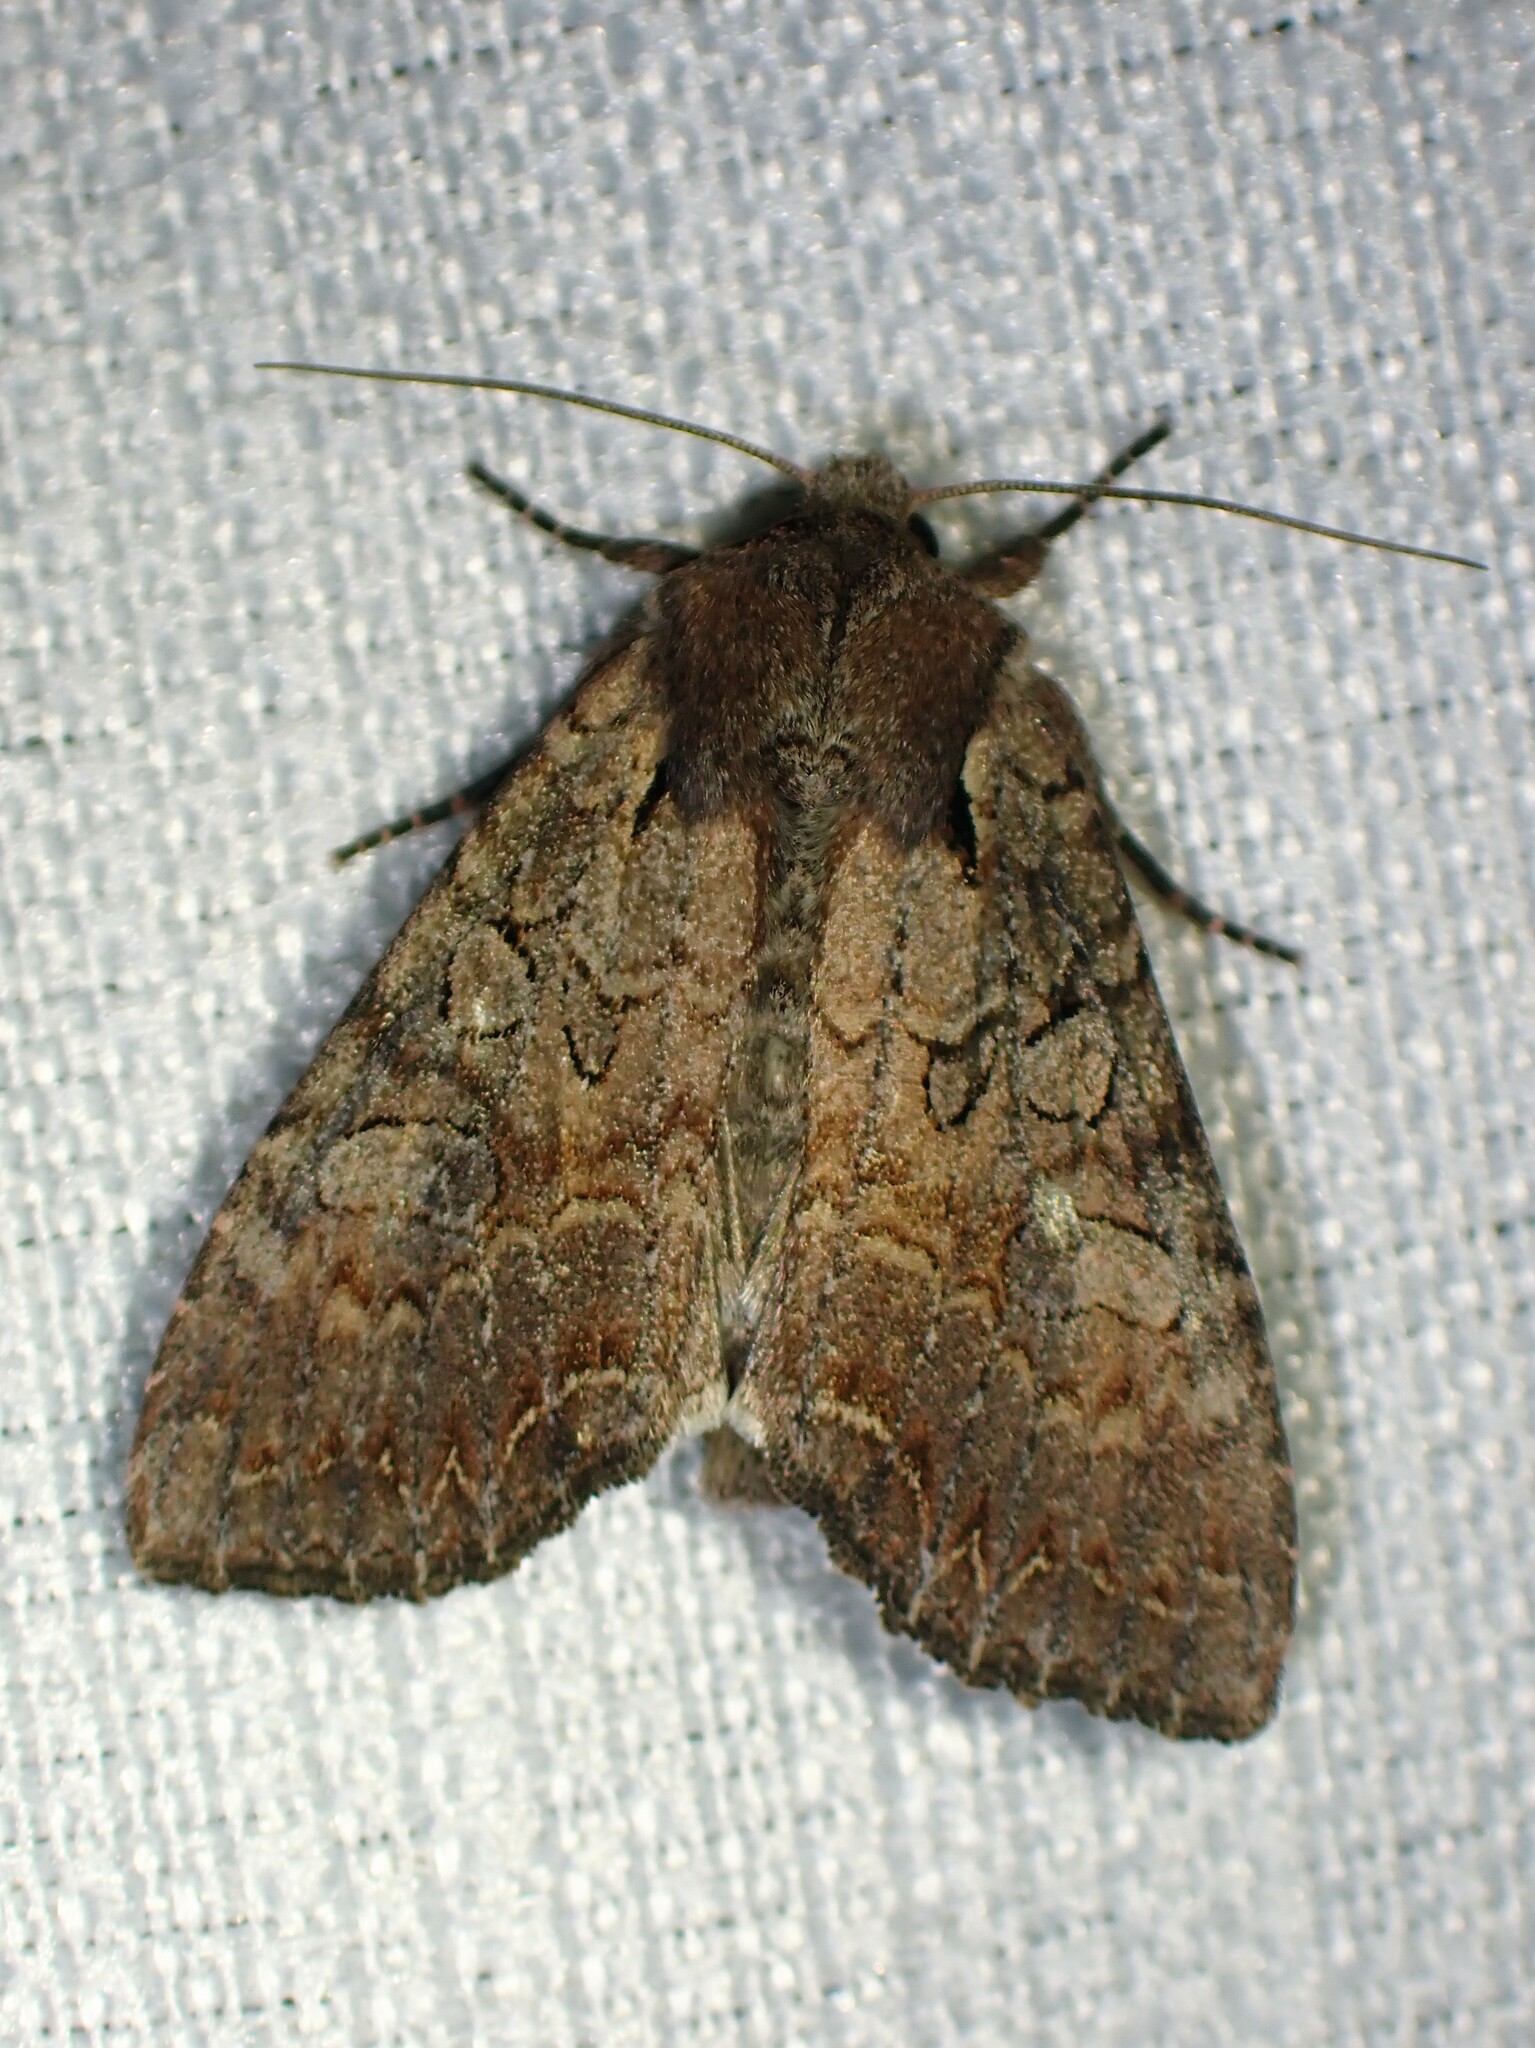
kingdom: Animalia
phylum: Arthropoda
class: Insecta
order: Lepidoptera
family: Noctuidae
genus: Lacanobia
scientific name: Lacanobia radix
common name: Garden arches moth
